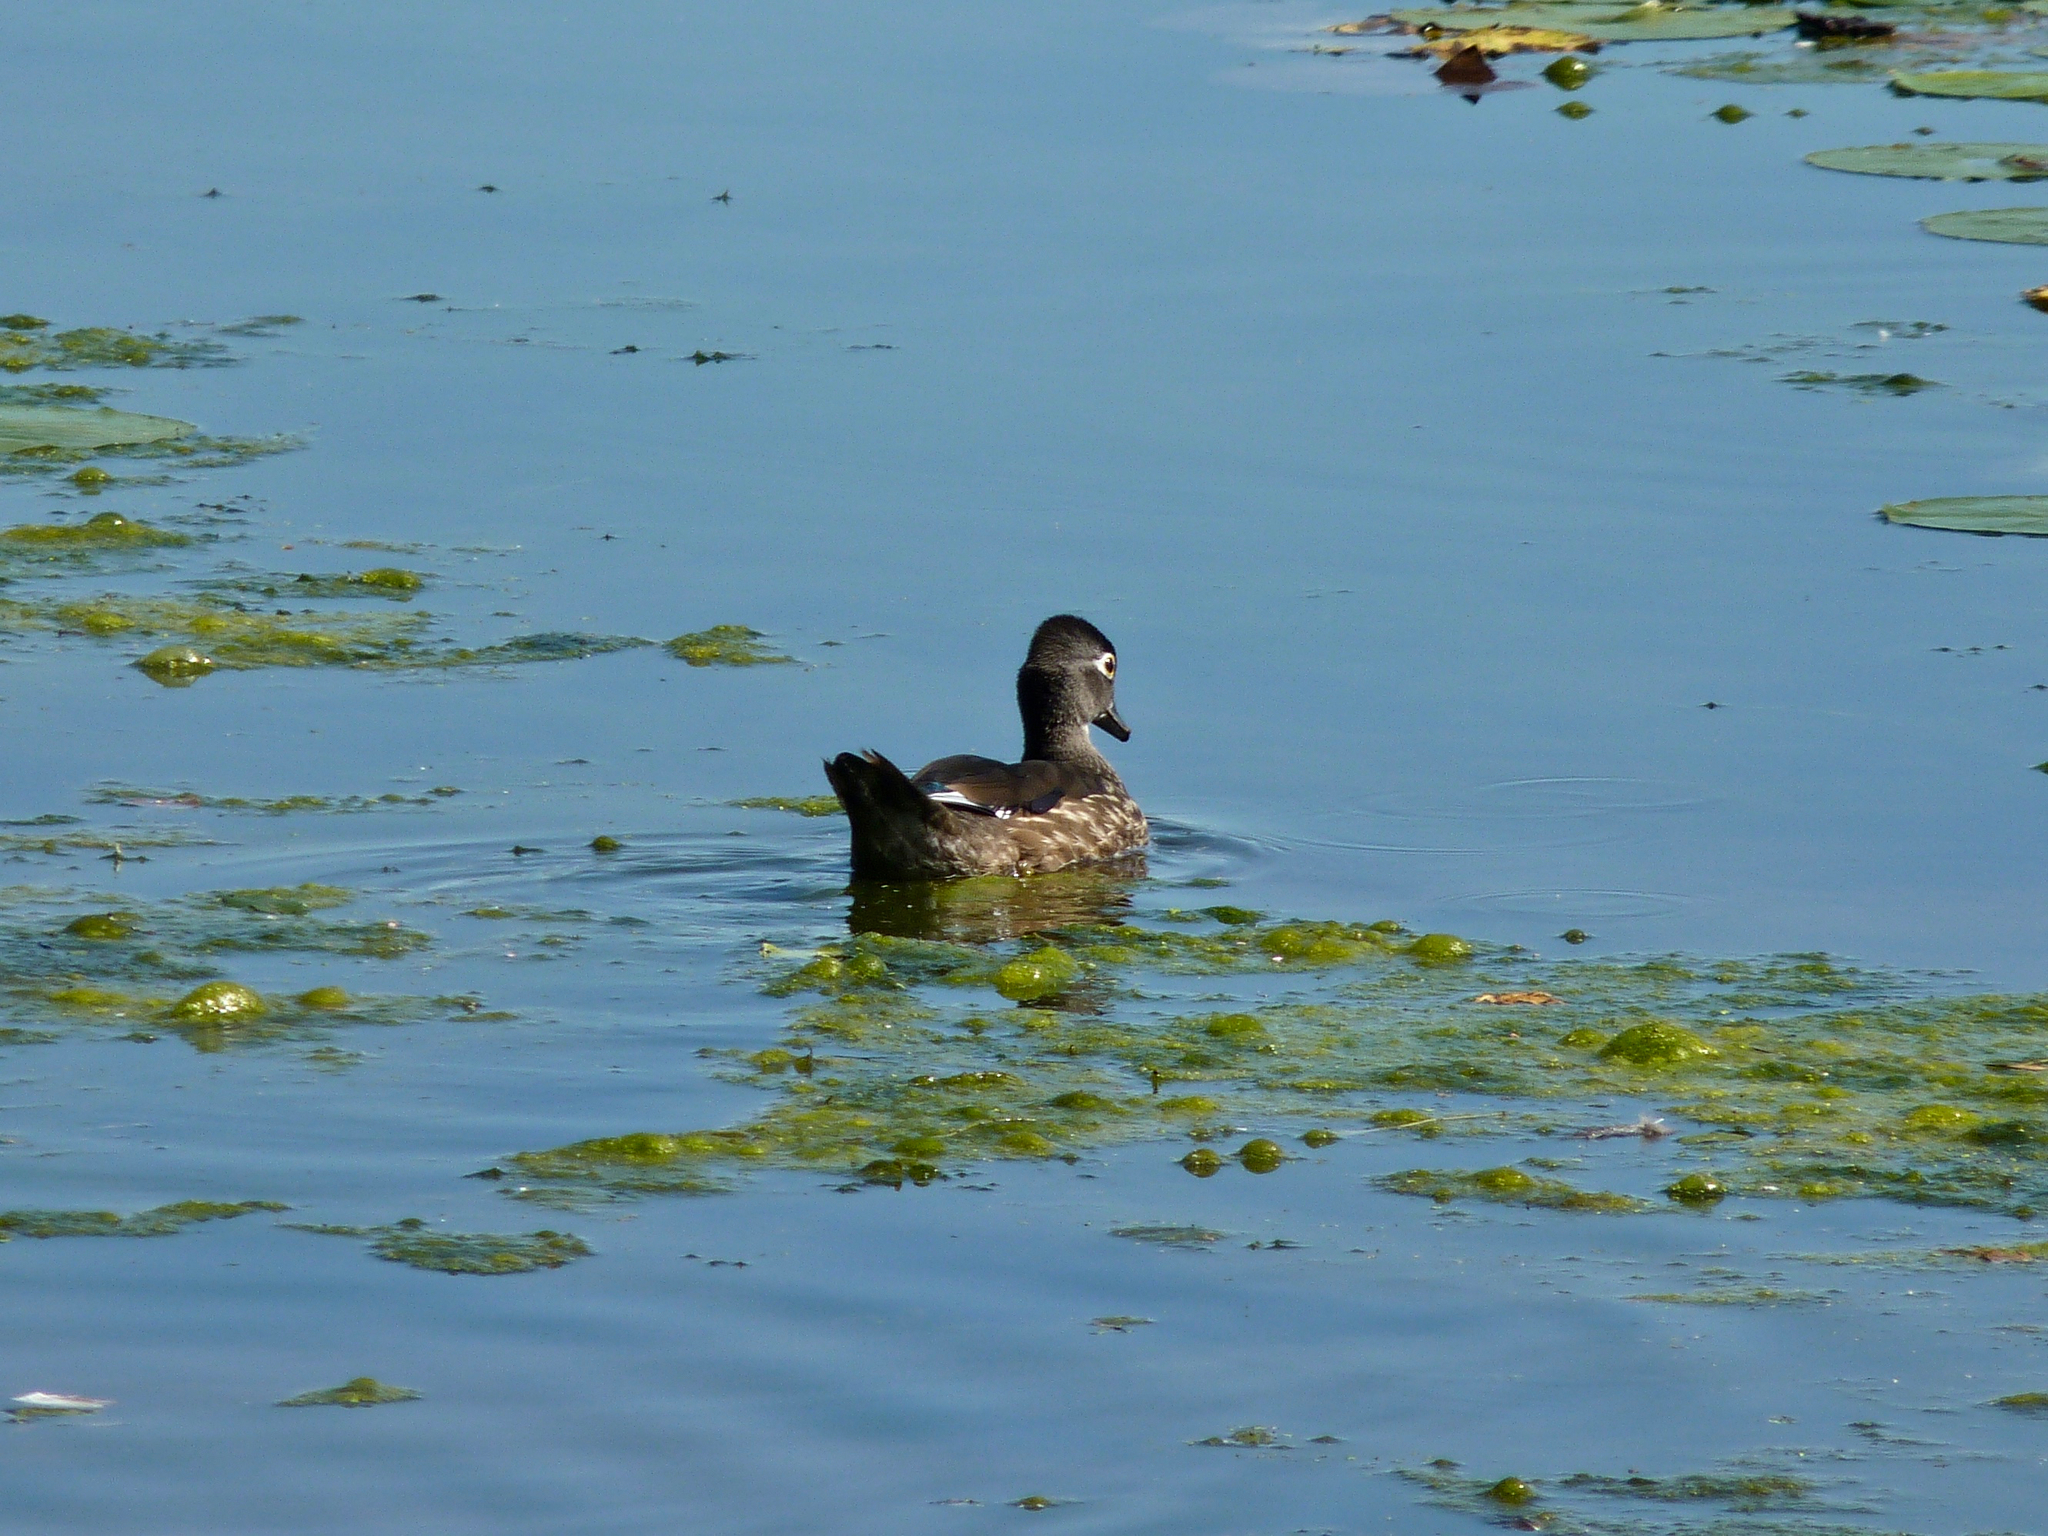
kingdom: Animalia
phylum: Chordata
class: Aves
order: Anseriformes
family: Anatidae
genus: Aix
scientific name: Aix sponsa
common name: Wood duck
